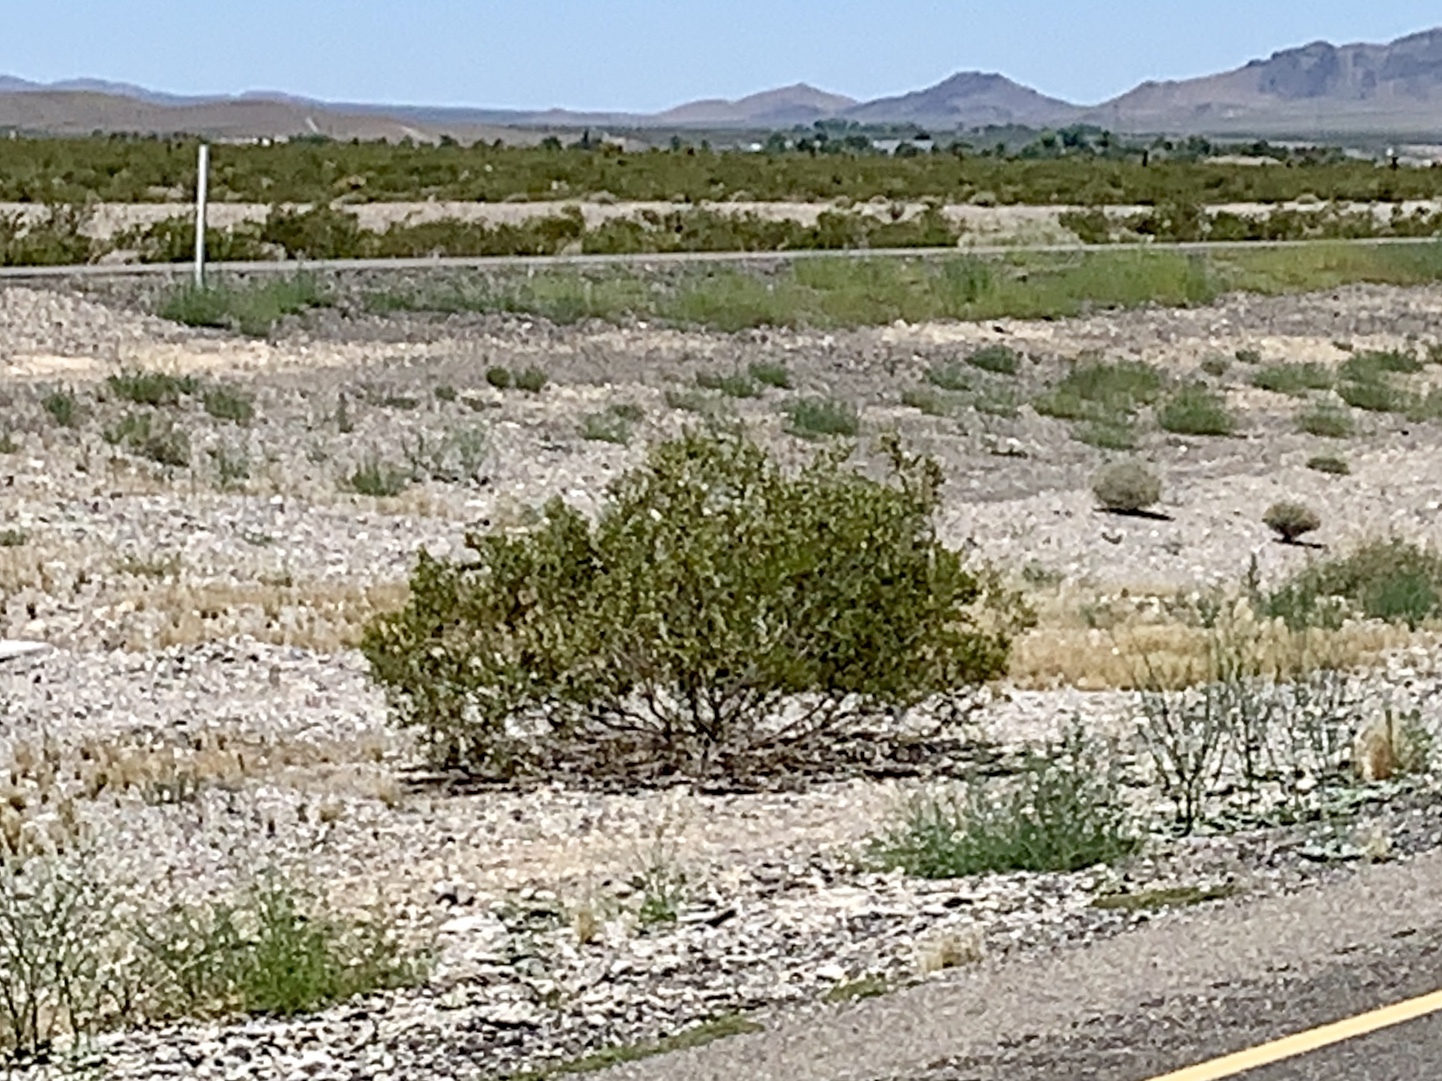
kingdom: Plantae
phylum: Tracheophyta
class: Magnoliopsida
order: Zygophyllales
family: Zygophyllaceae
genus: Larrea
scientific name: Larrea tridentata
